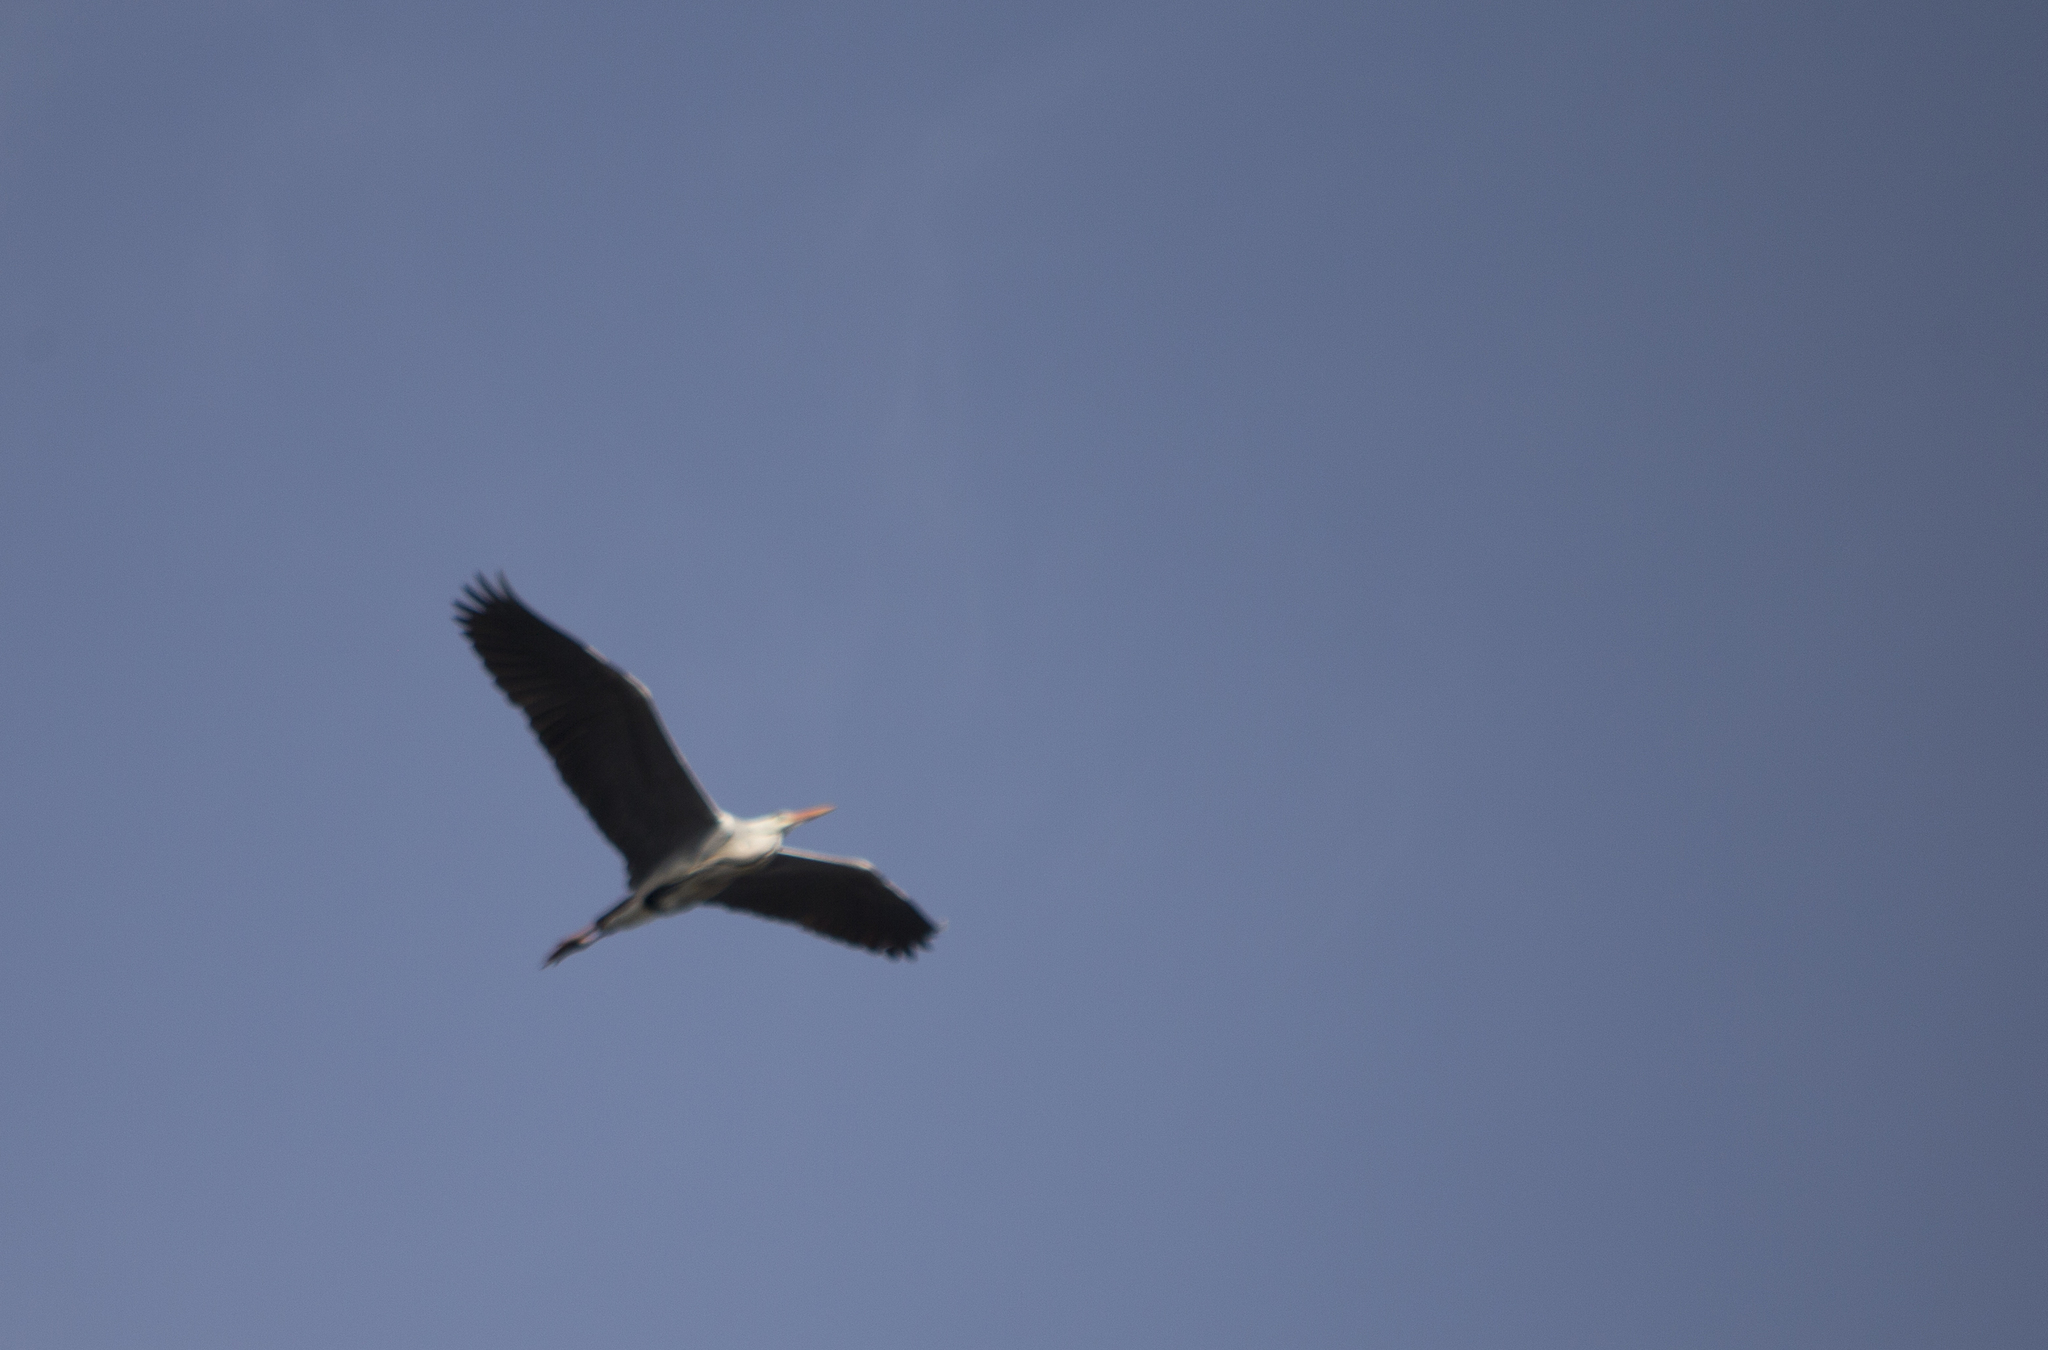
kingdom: Animalia
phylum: Chordata
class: Aves
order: Pelecaniformes
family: Ardeidae
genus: Ardea
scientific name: Ardea cinerea
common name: Grey heron
